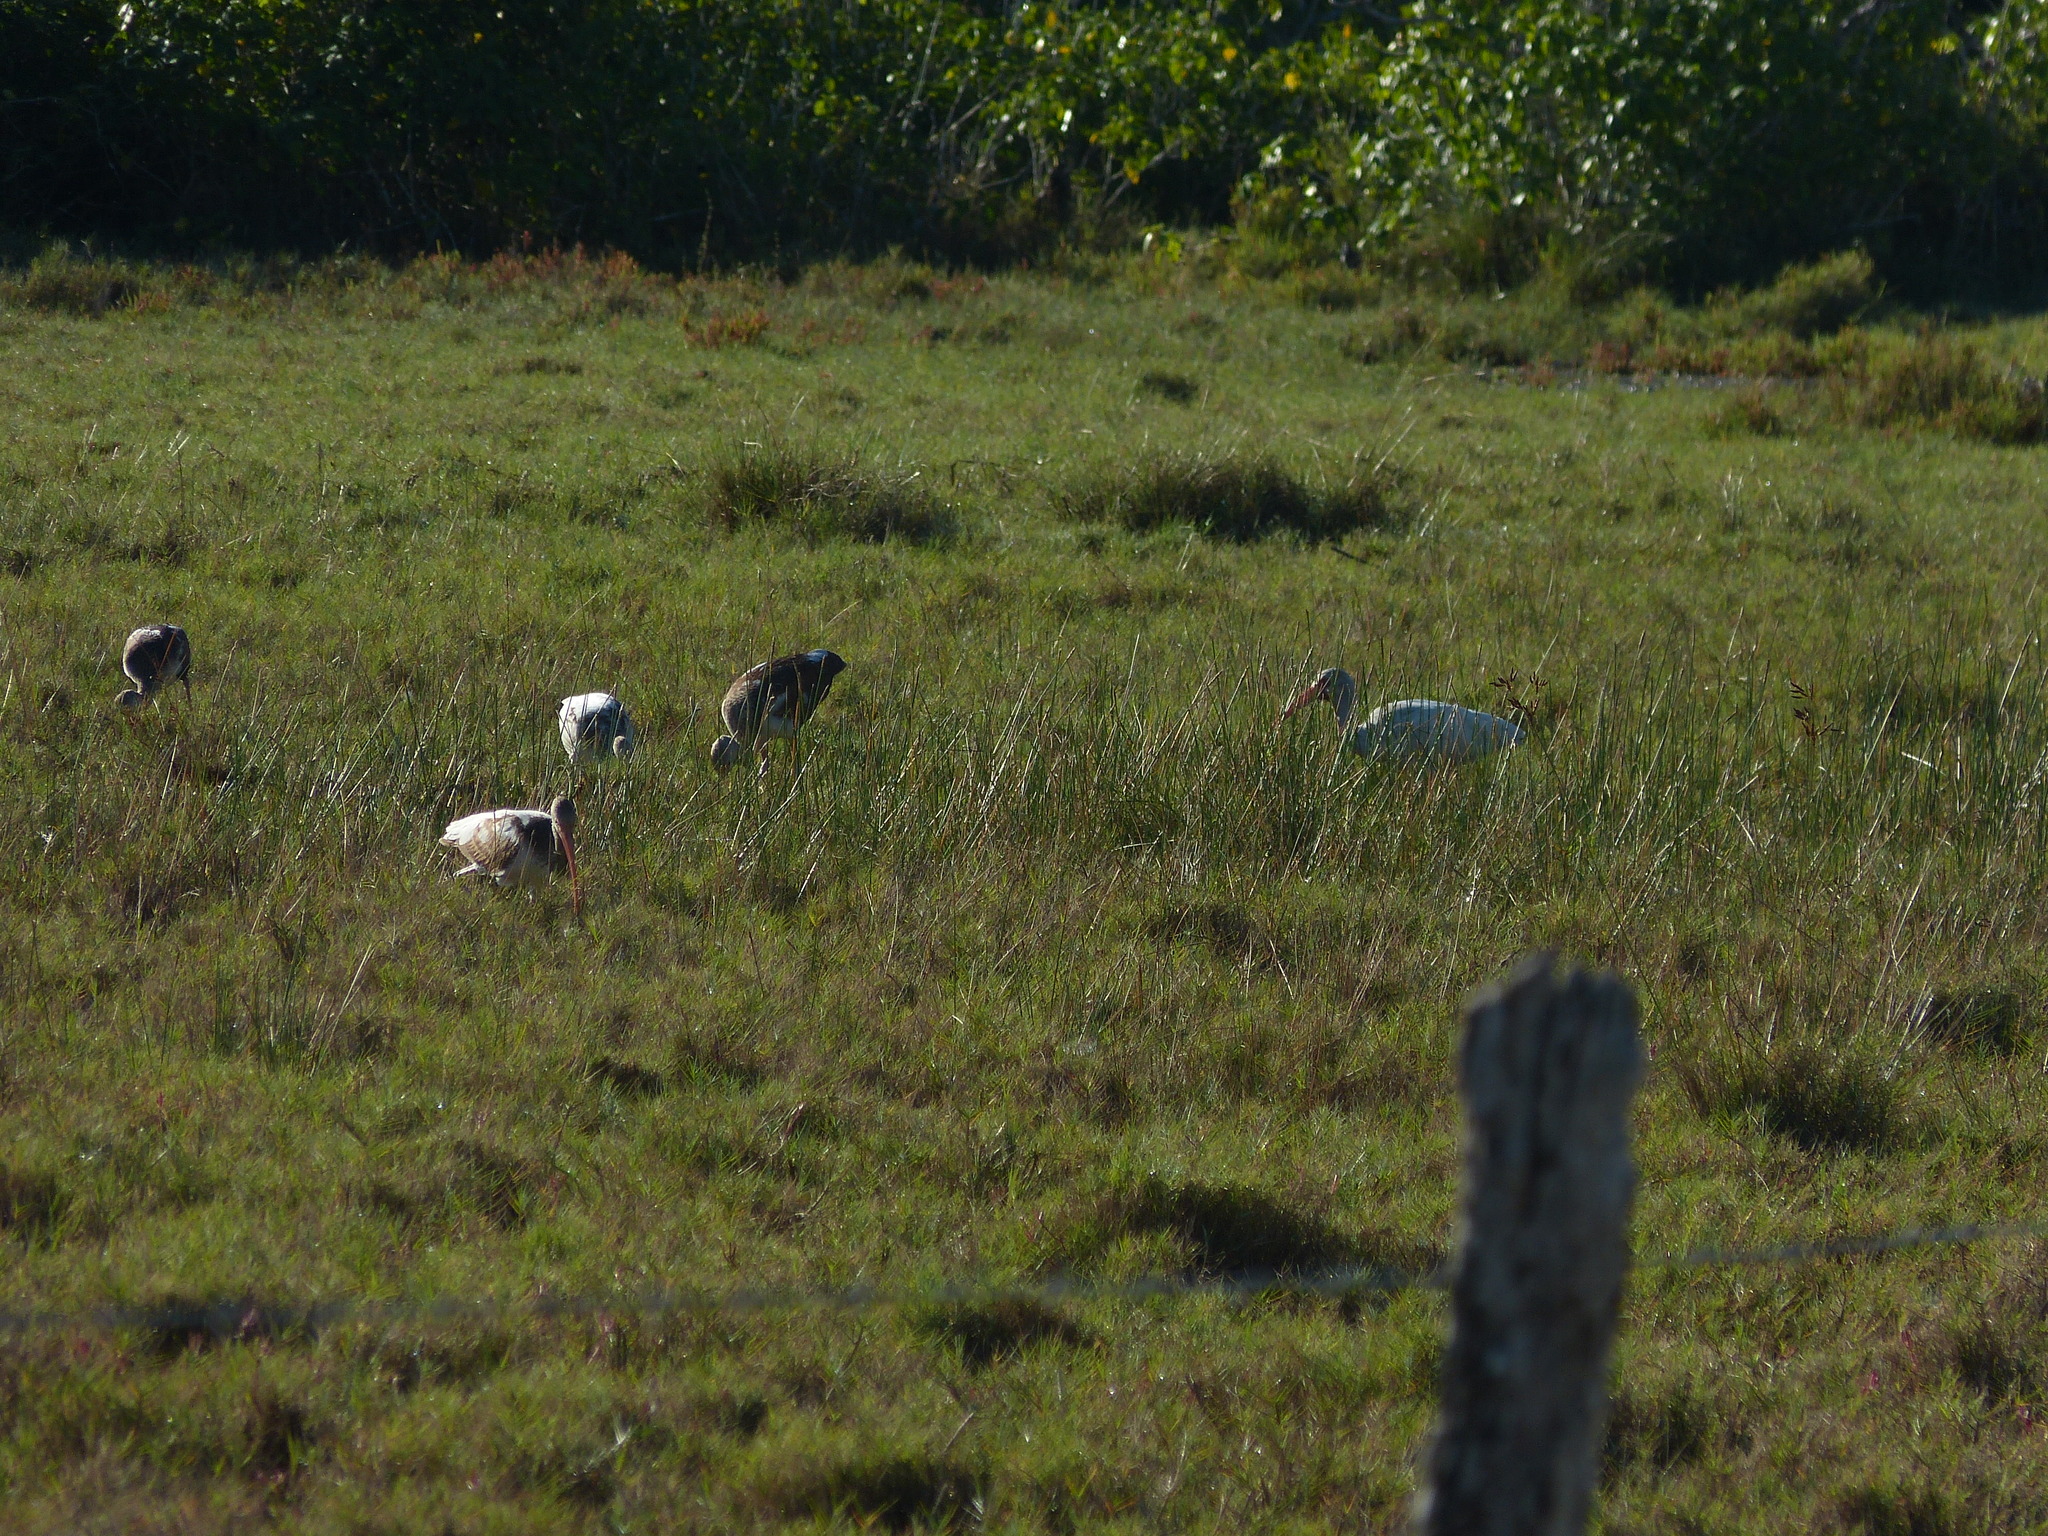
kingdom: Animalia
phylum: Chordata
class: Aves
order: Pelecaniformes
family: Threskiornithidae
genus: Eudocimus
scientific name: Eudocimus albus
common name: White ibis
